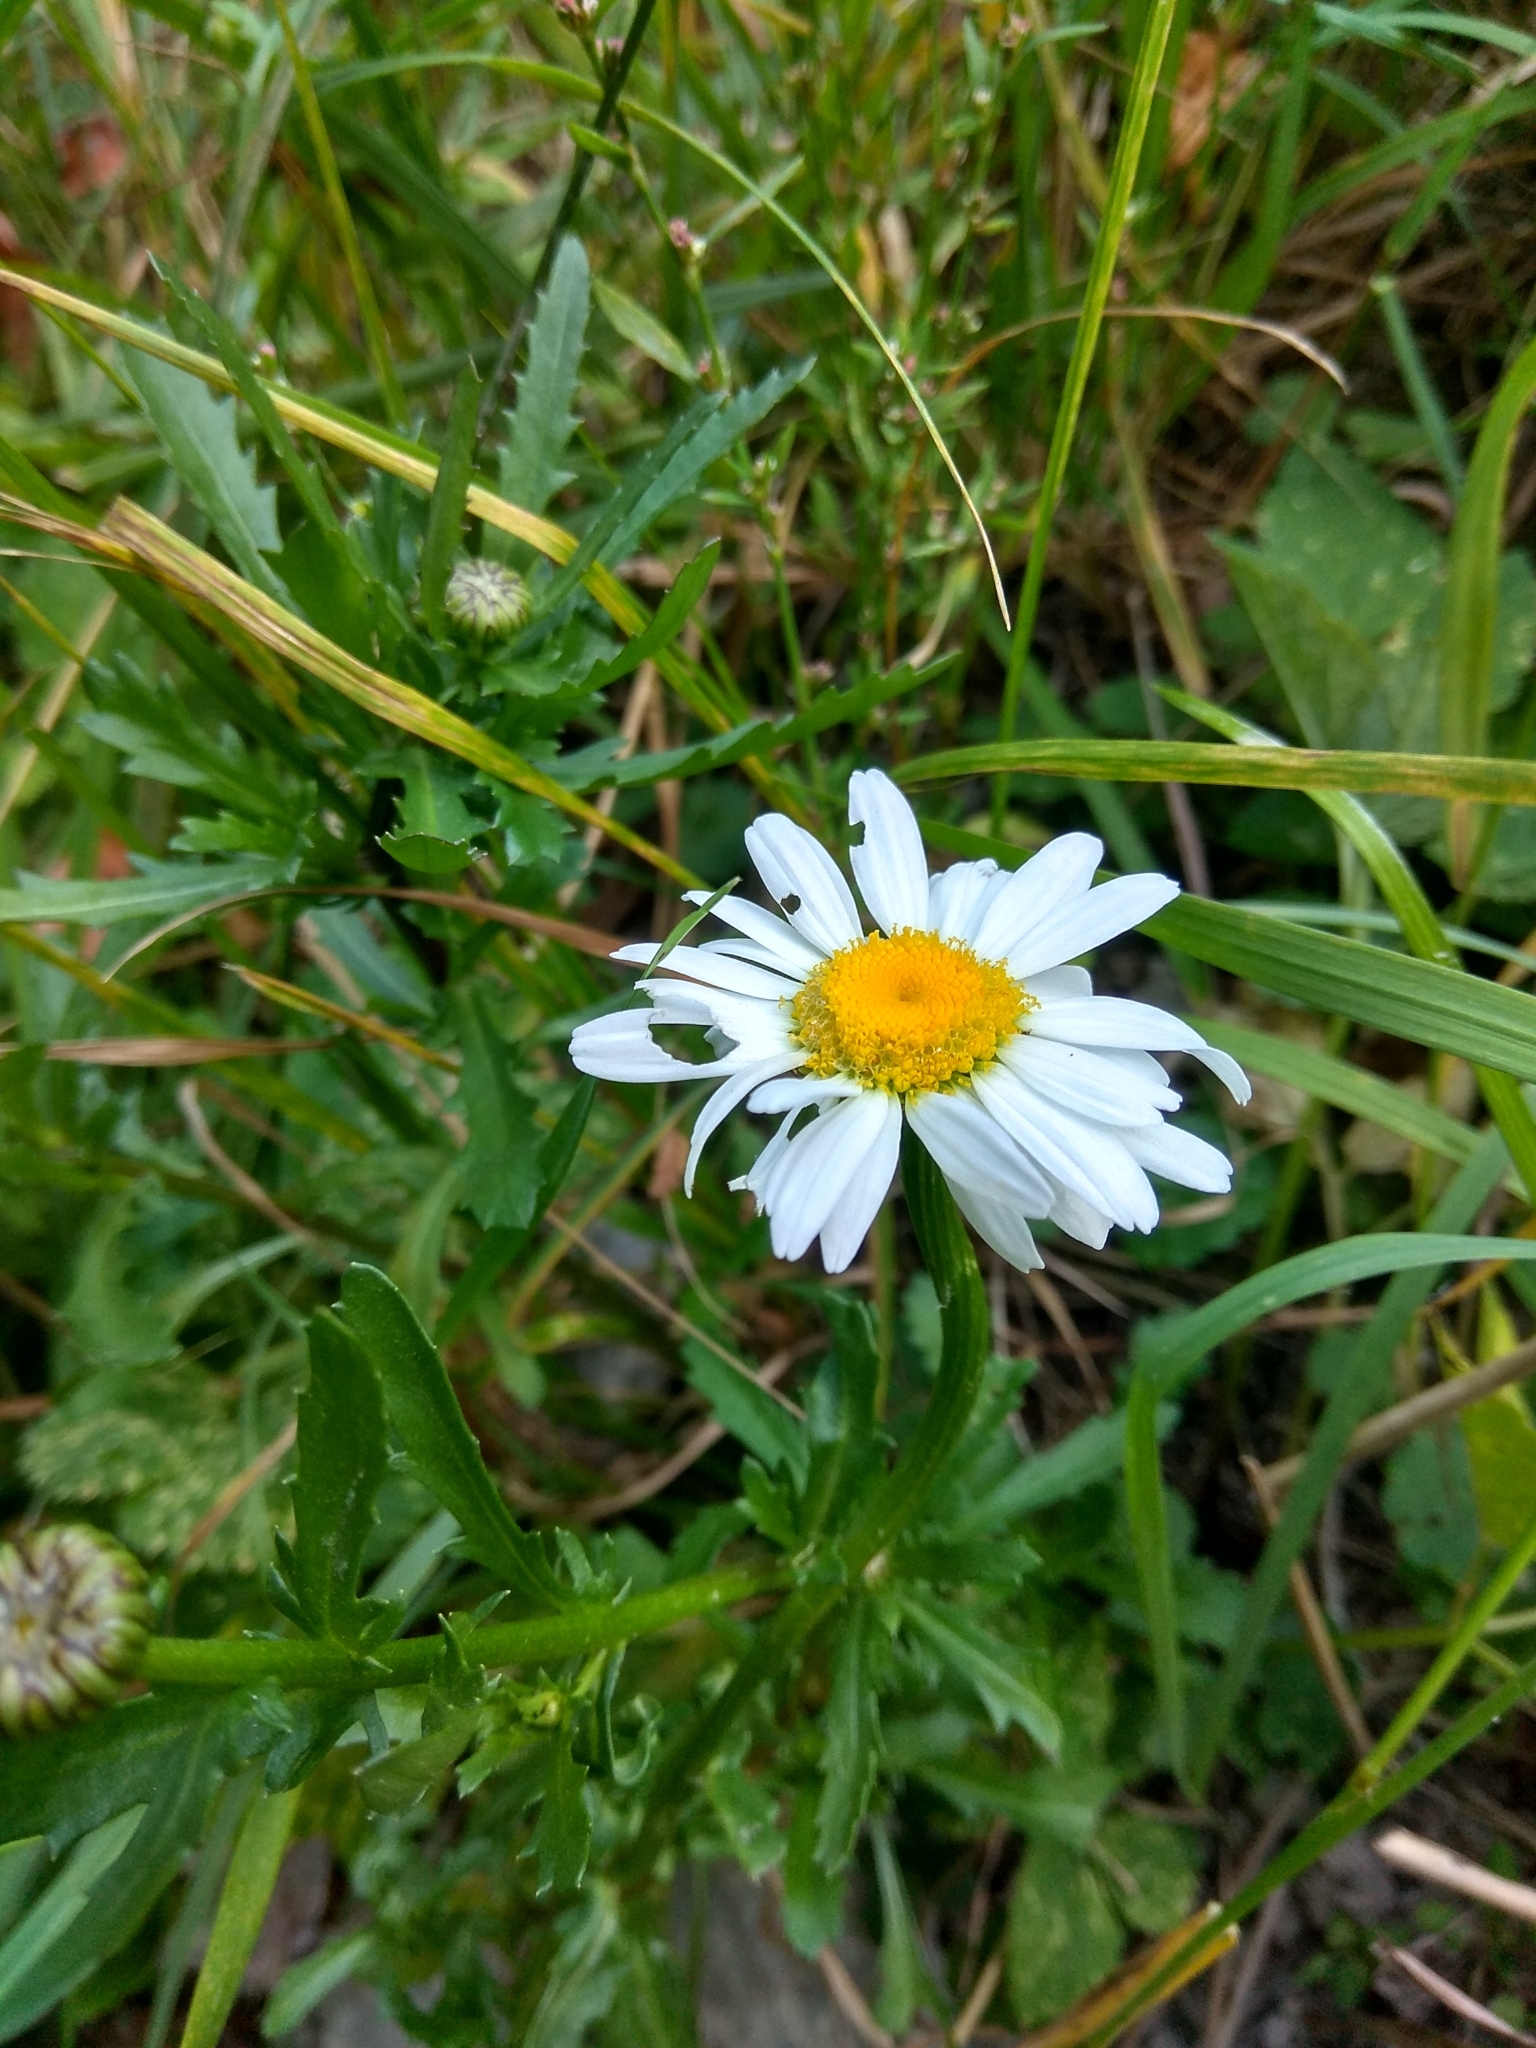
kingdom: Plantae
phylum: Tracheophyta
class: Magnoliopsida
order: Asterales
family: Asteraceae
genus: Leucanthemum
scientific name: Leucanthemum vulgare
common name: Oxeye daisy
